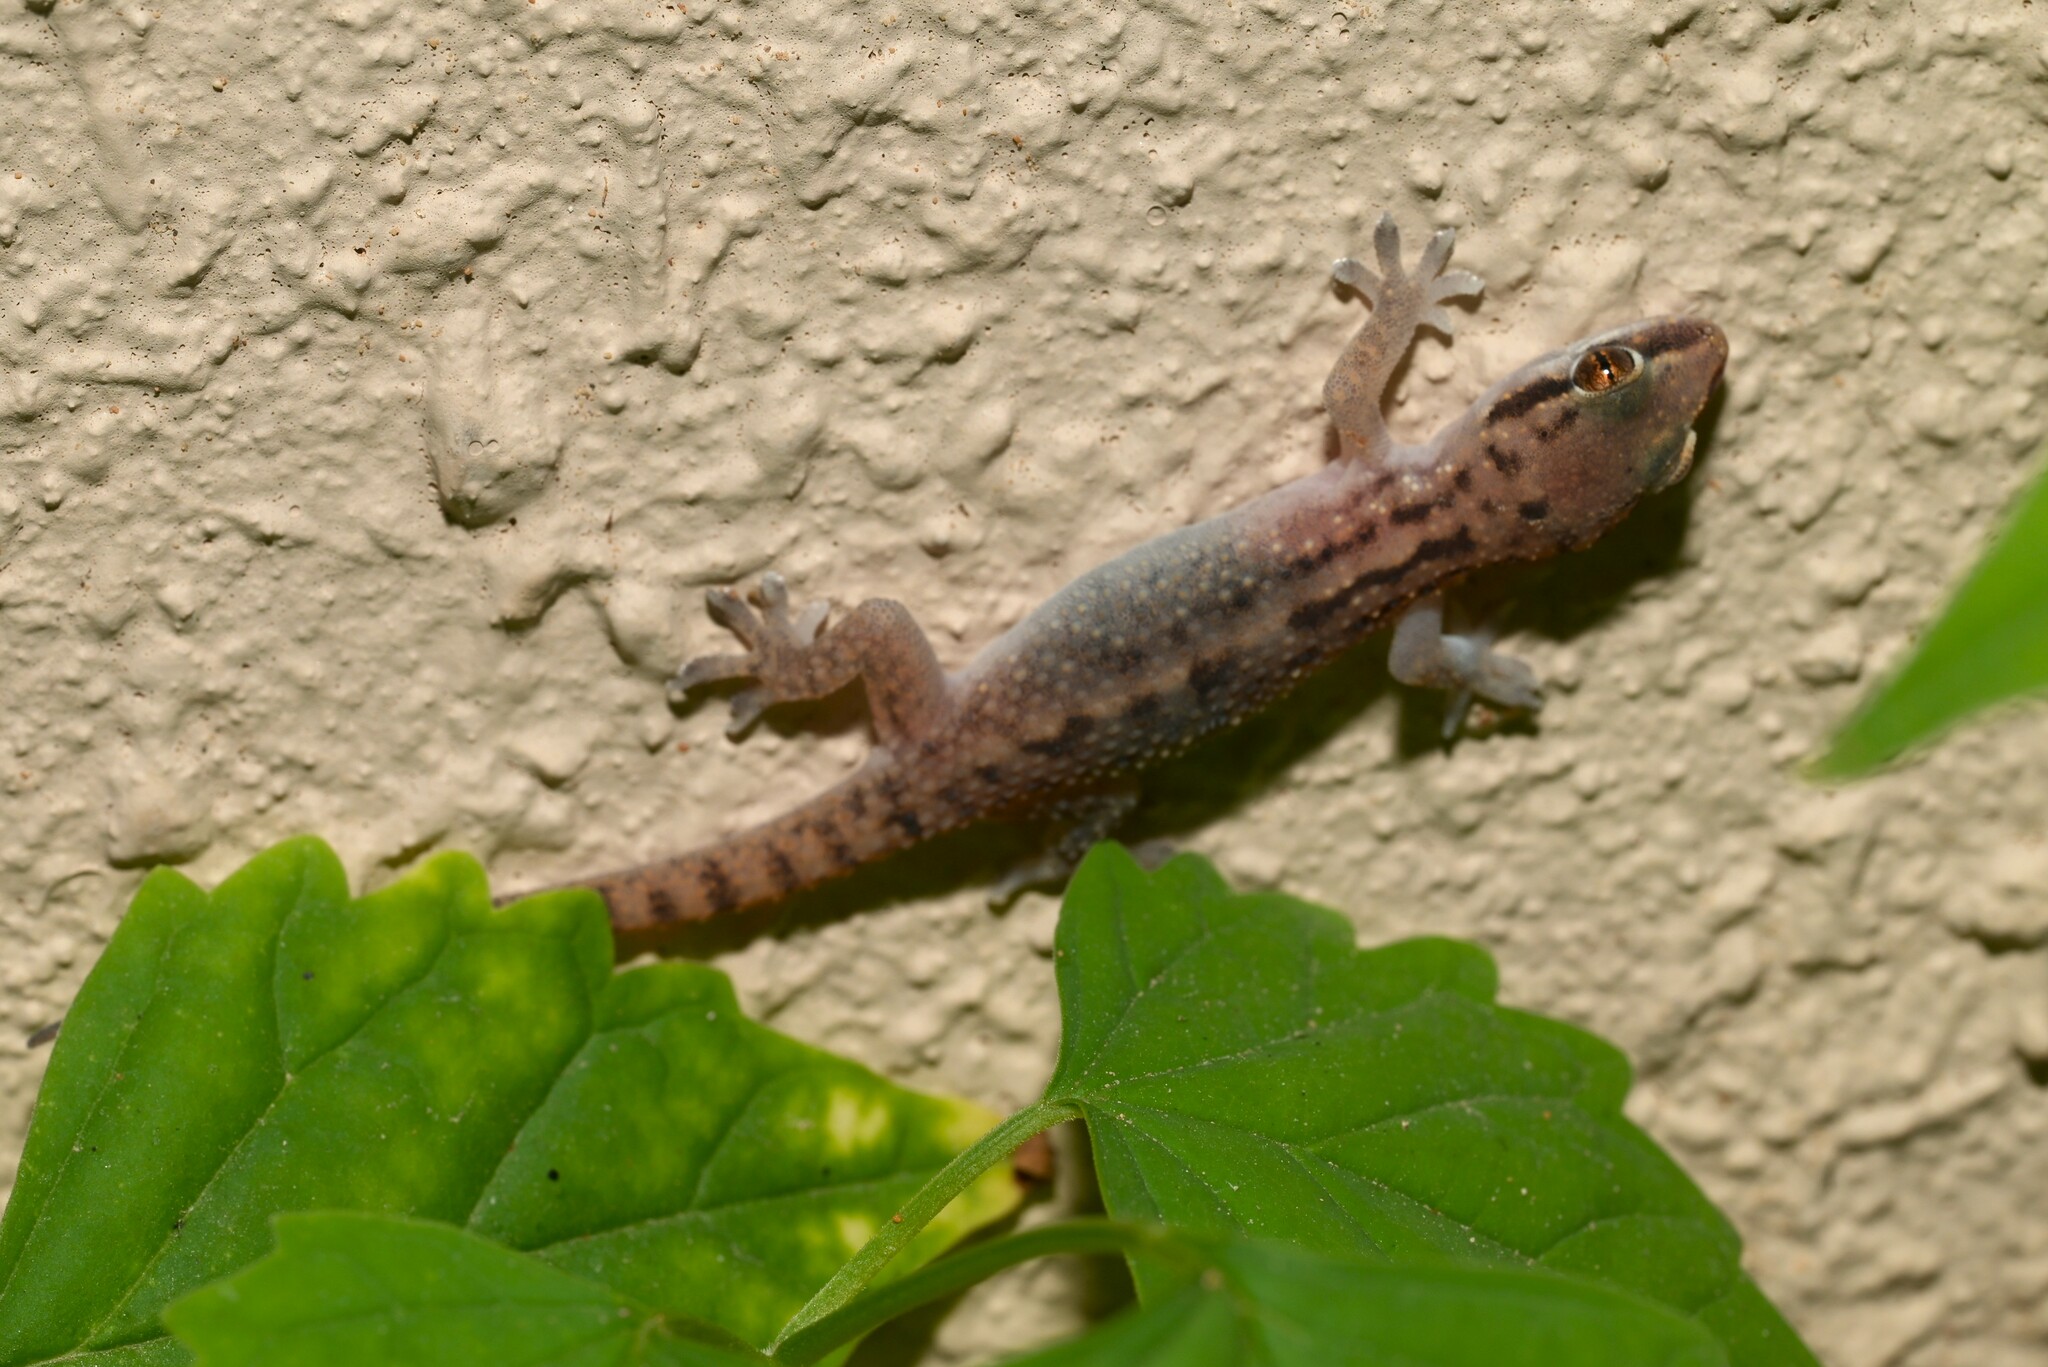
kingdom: Animalia
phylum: Chordata
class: Squamata
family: Gekkonidae
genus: Hemidactylus
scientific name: Hemidactylus robustus
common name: Heyden’s gecko
